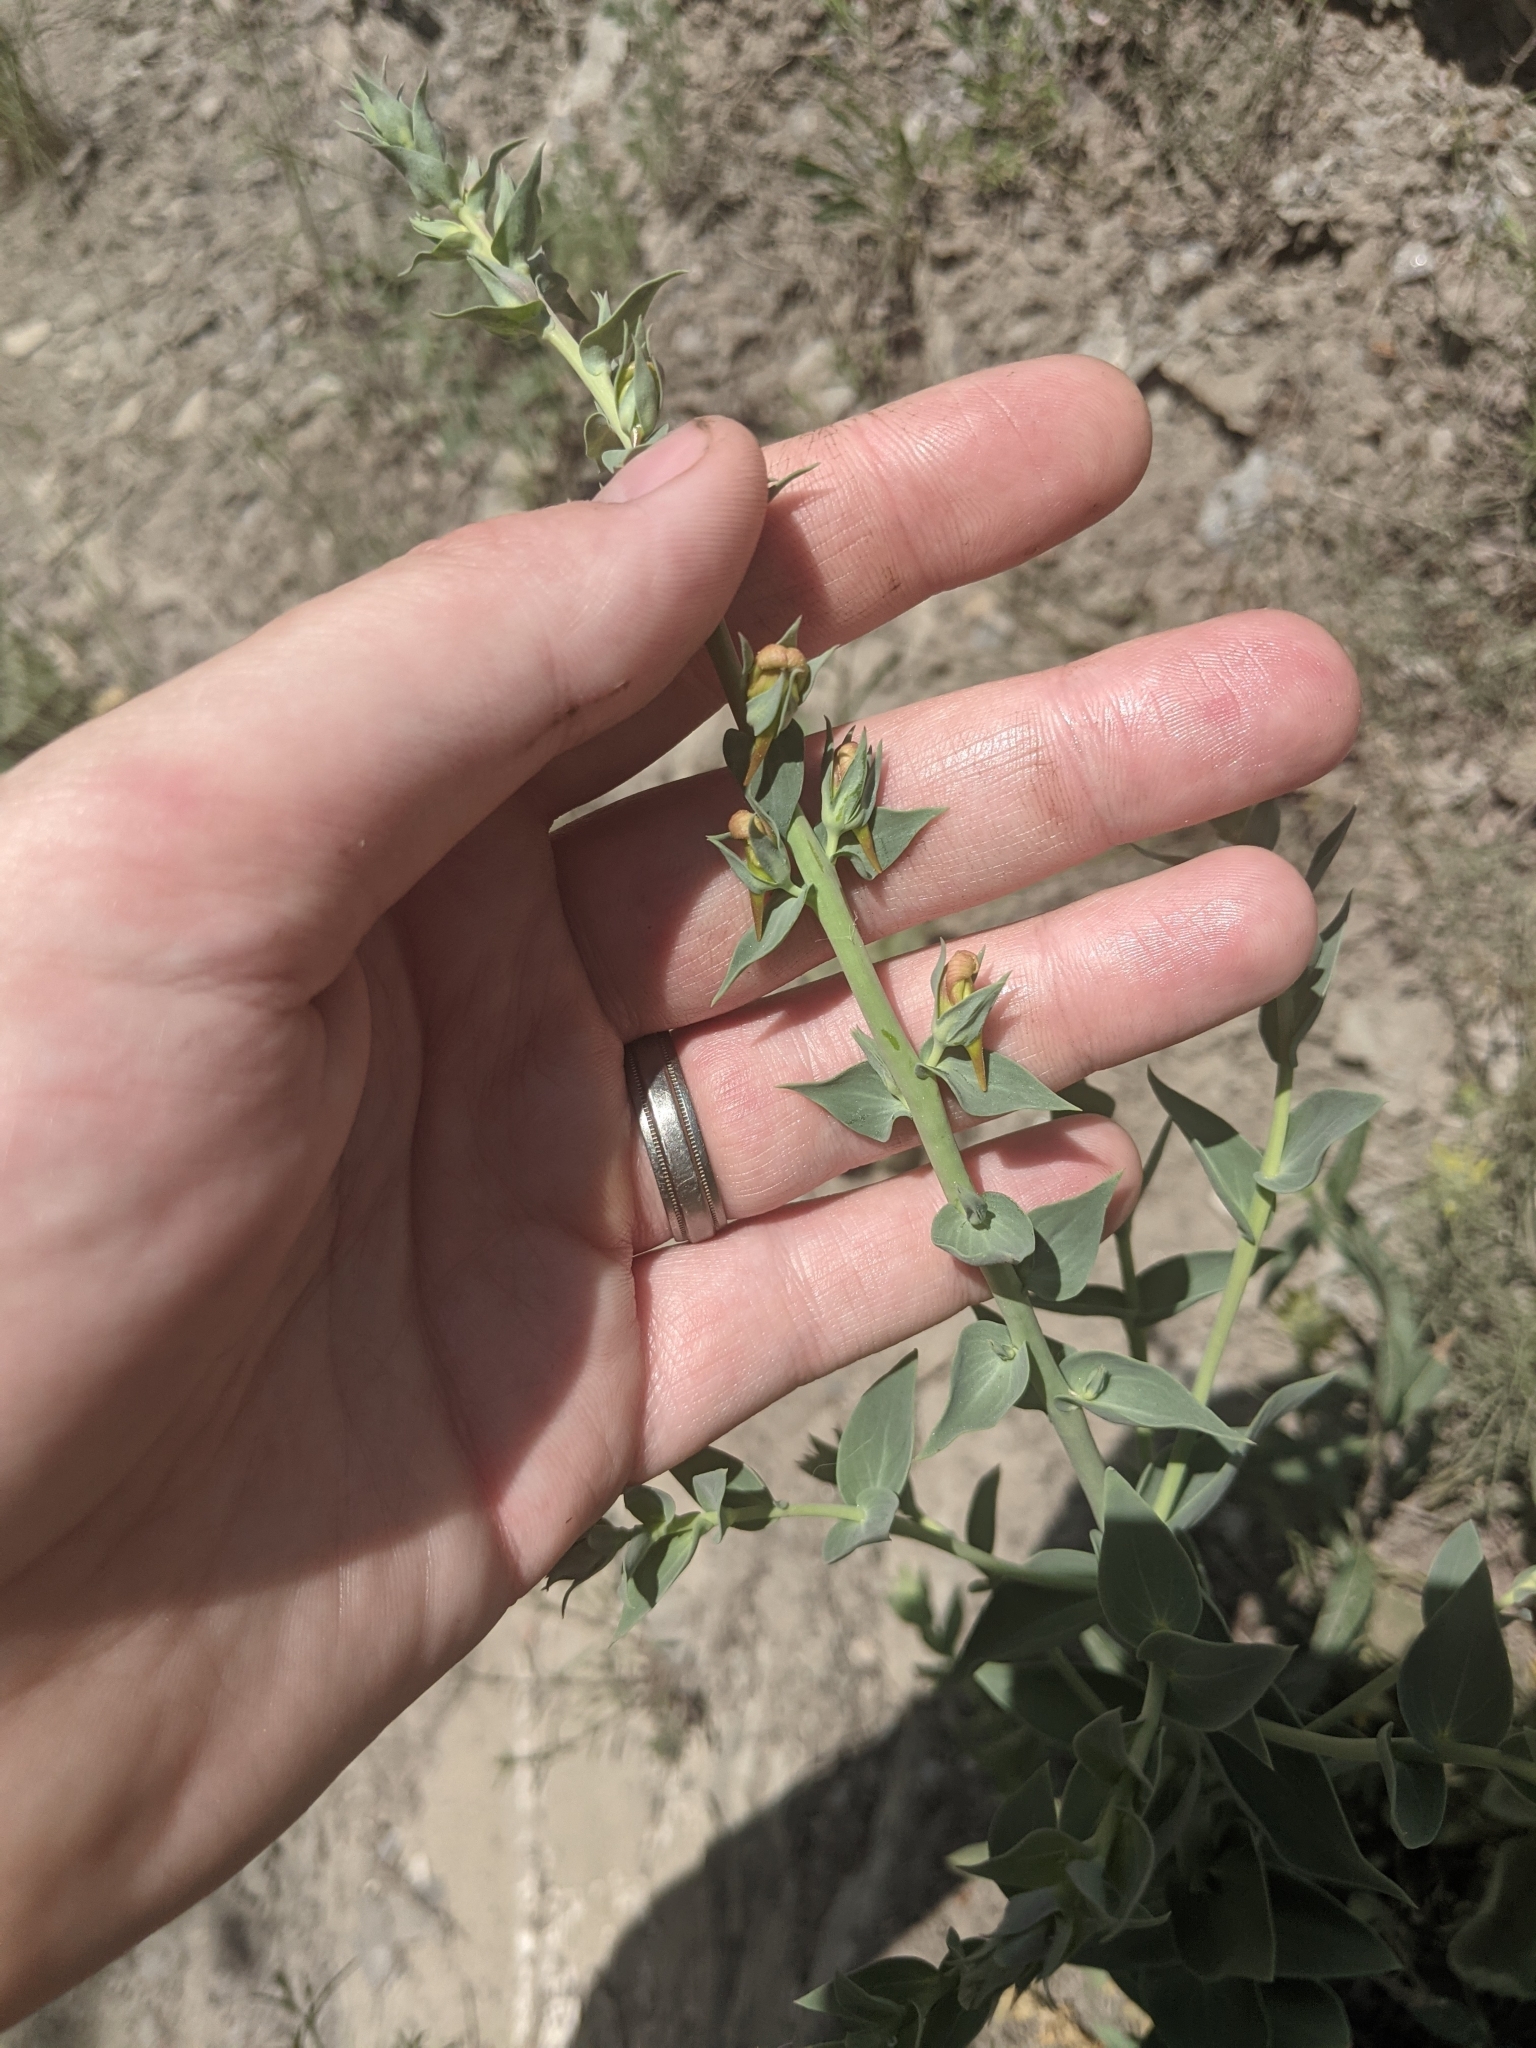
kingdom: Plantae
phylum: Tracheophyta
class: Magnoliopsida
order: Lamiales
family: Plantaginaceae
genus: Linaria
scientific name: Linaria dalmatica
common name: Dalmatian toadflax
